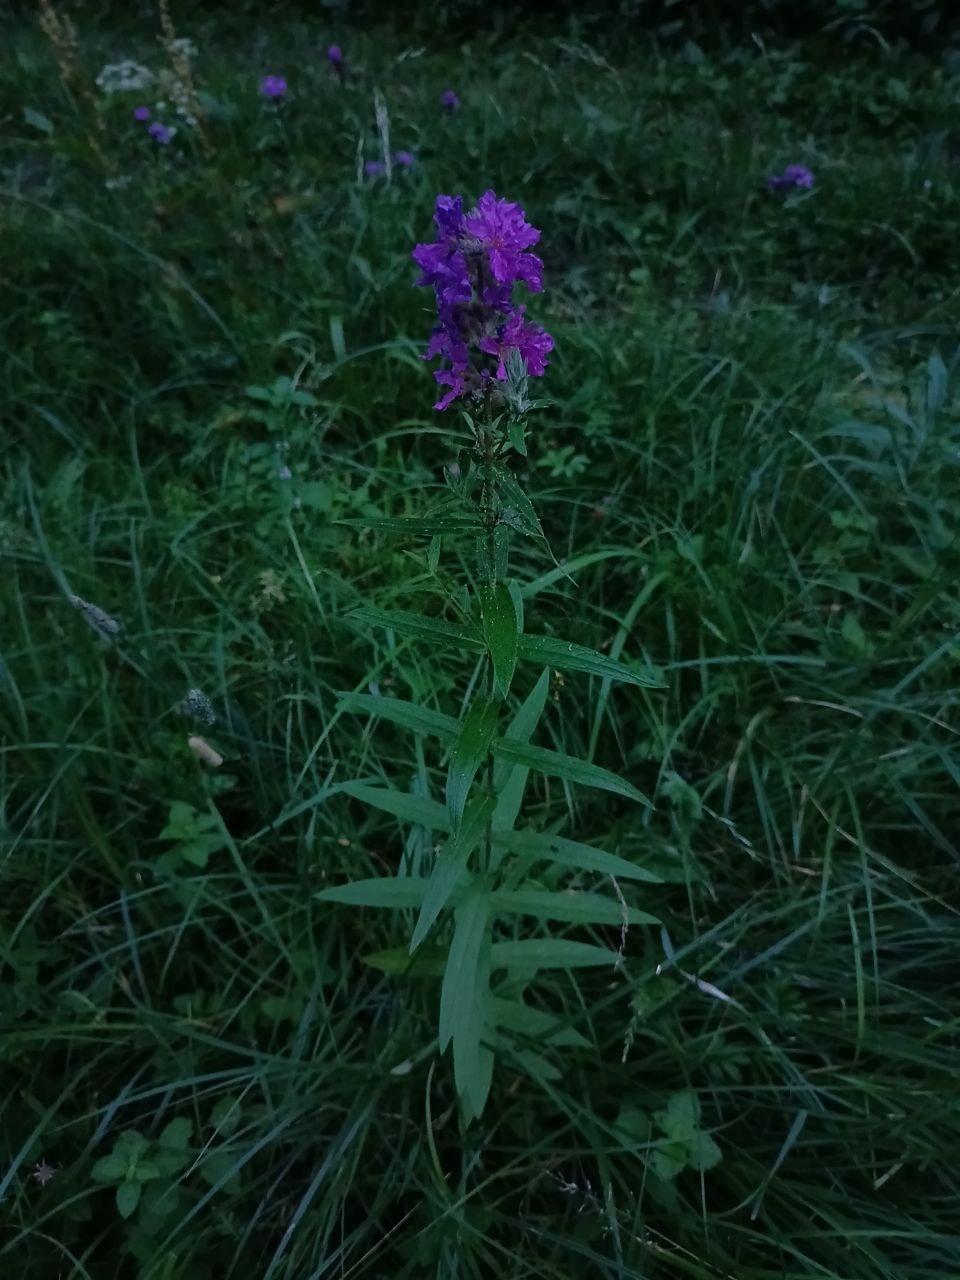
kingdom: Plantae
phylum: Tracheophyta
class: Magnoliopsida
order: Myrtales
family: Lythraceae
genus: Lythrum
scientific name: Lythrum salicaria
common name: Purple loosestrife
